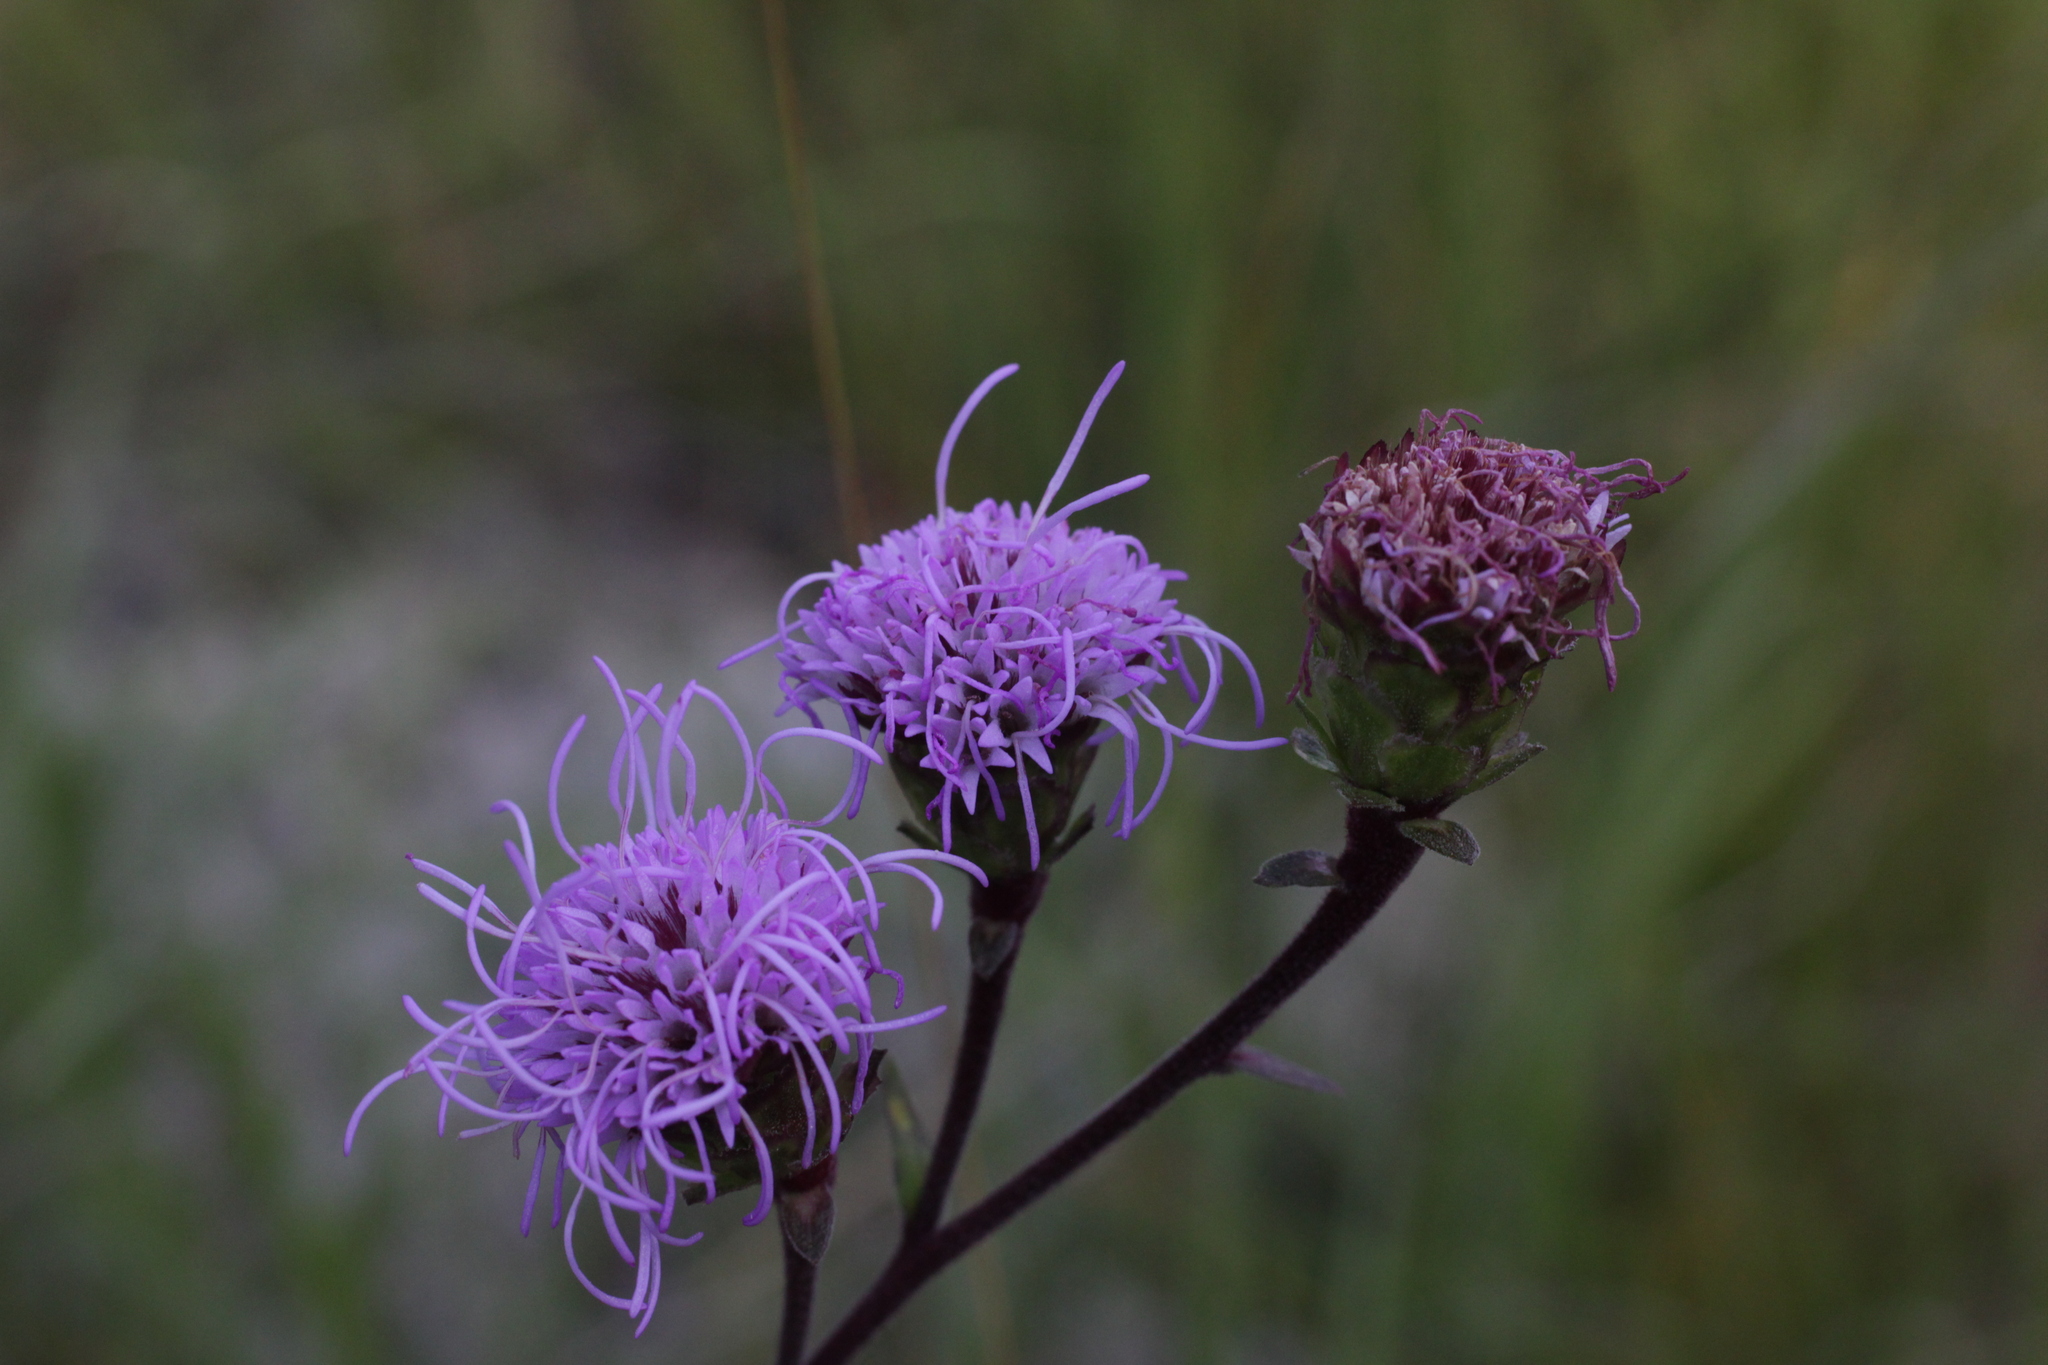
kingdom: Plantae
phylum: Tracheophyta
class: Magnoliopsida
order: Asterales
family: Asteraceae
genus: Liatris
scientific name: Liatris scariosa
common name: Northern gayfeather
